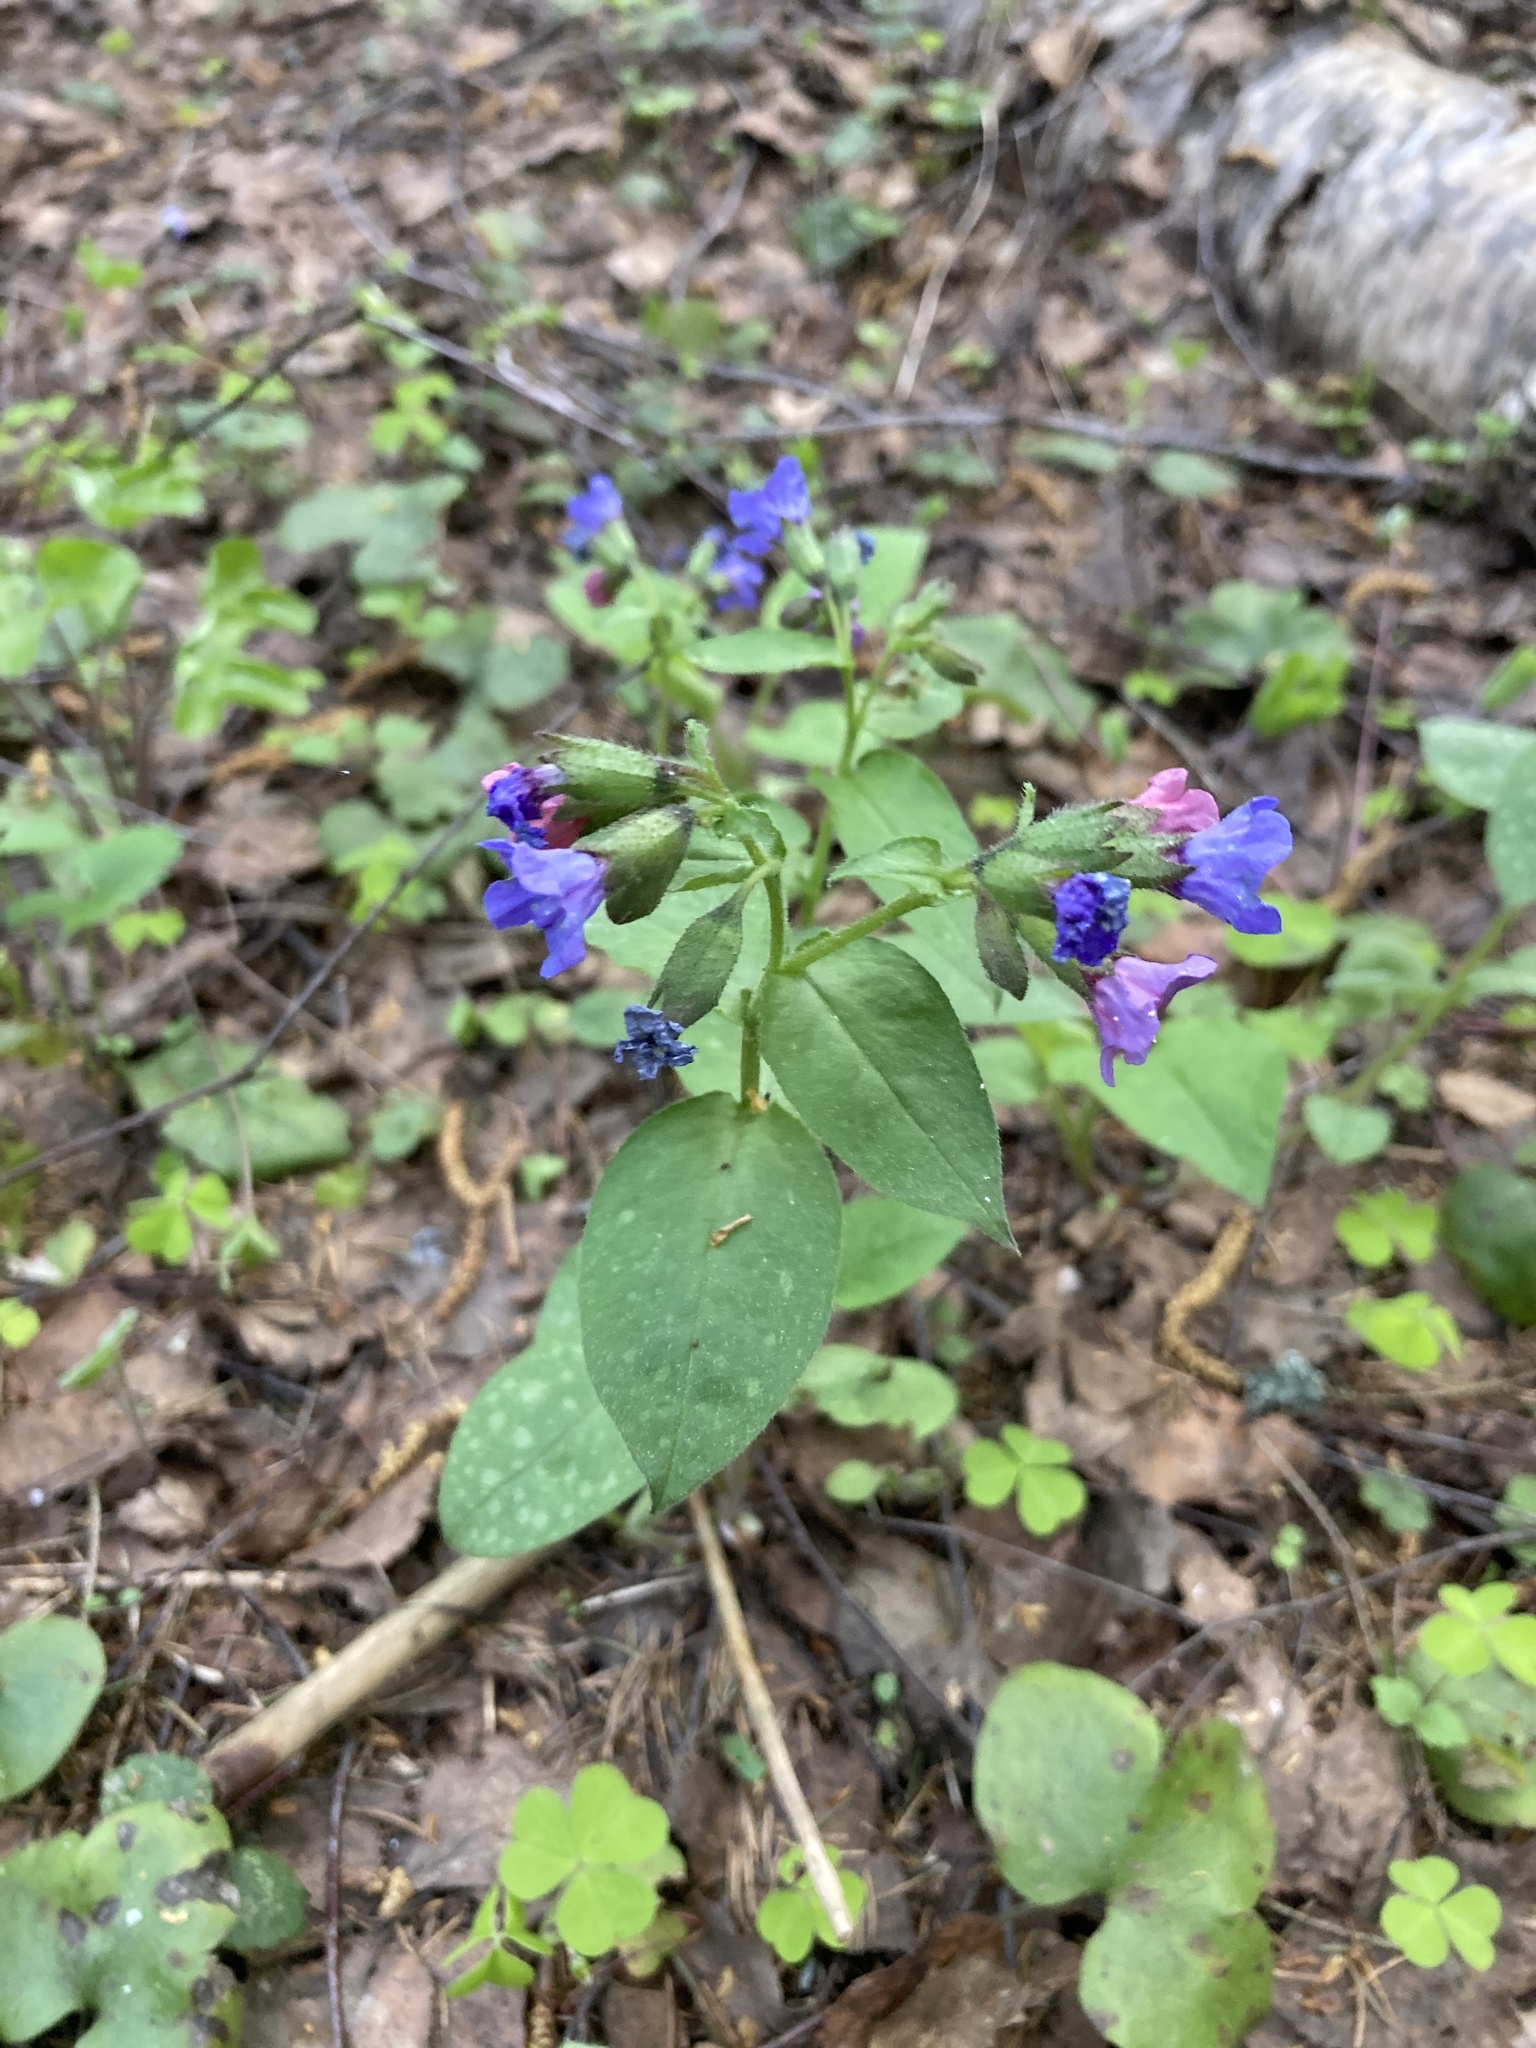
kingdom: Plantae
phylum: Tracheophyta
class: Magnoliopsida
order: Boraginales
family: Boraginaceae
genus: Pulmonaria
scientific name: Pulmonaria obscura
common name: Suffolk lungwort
